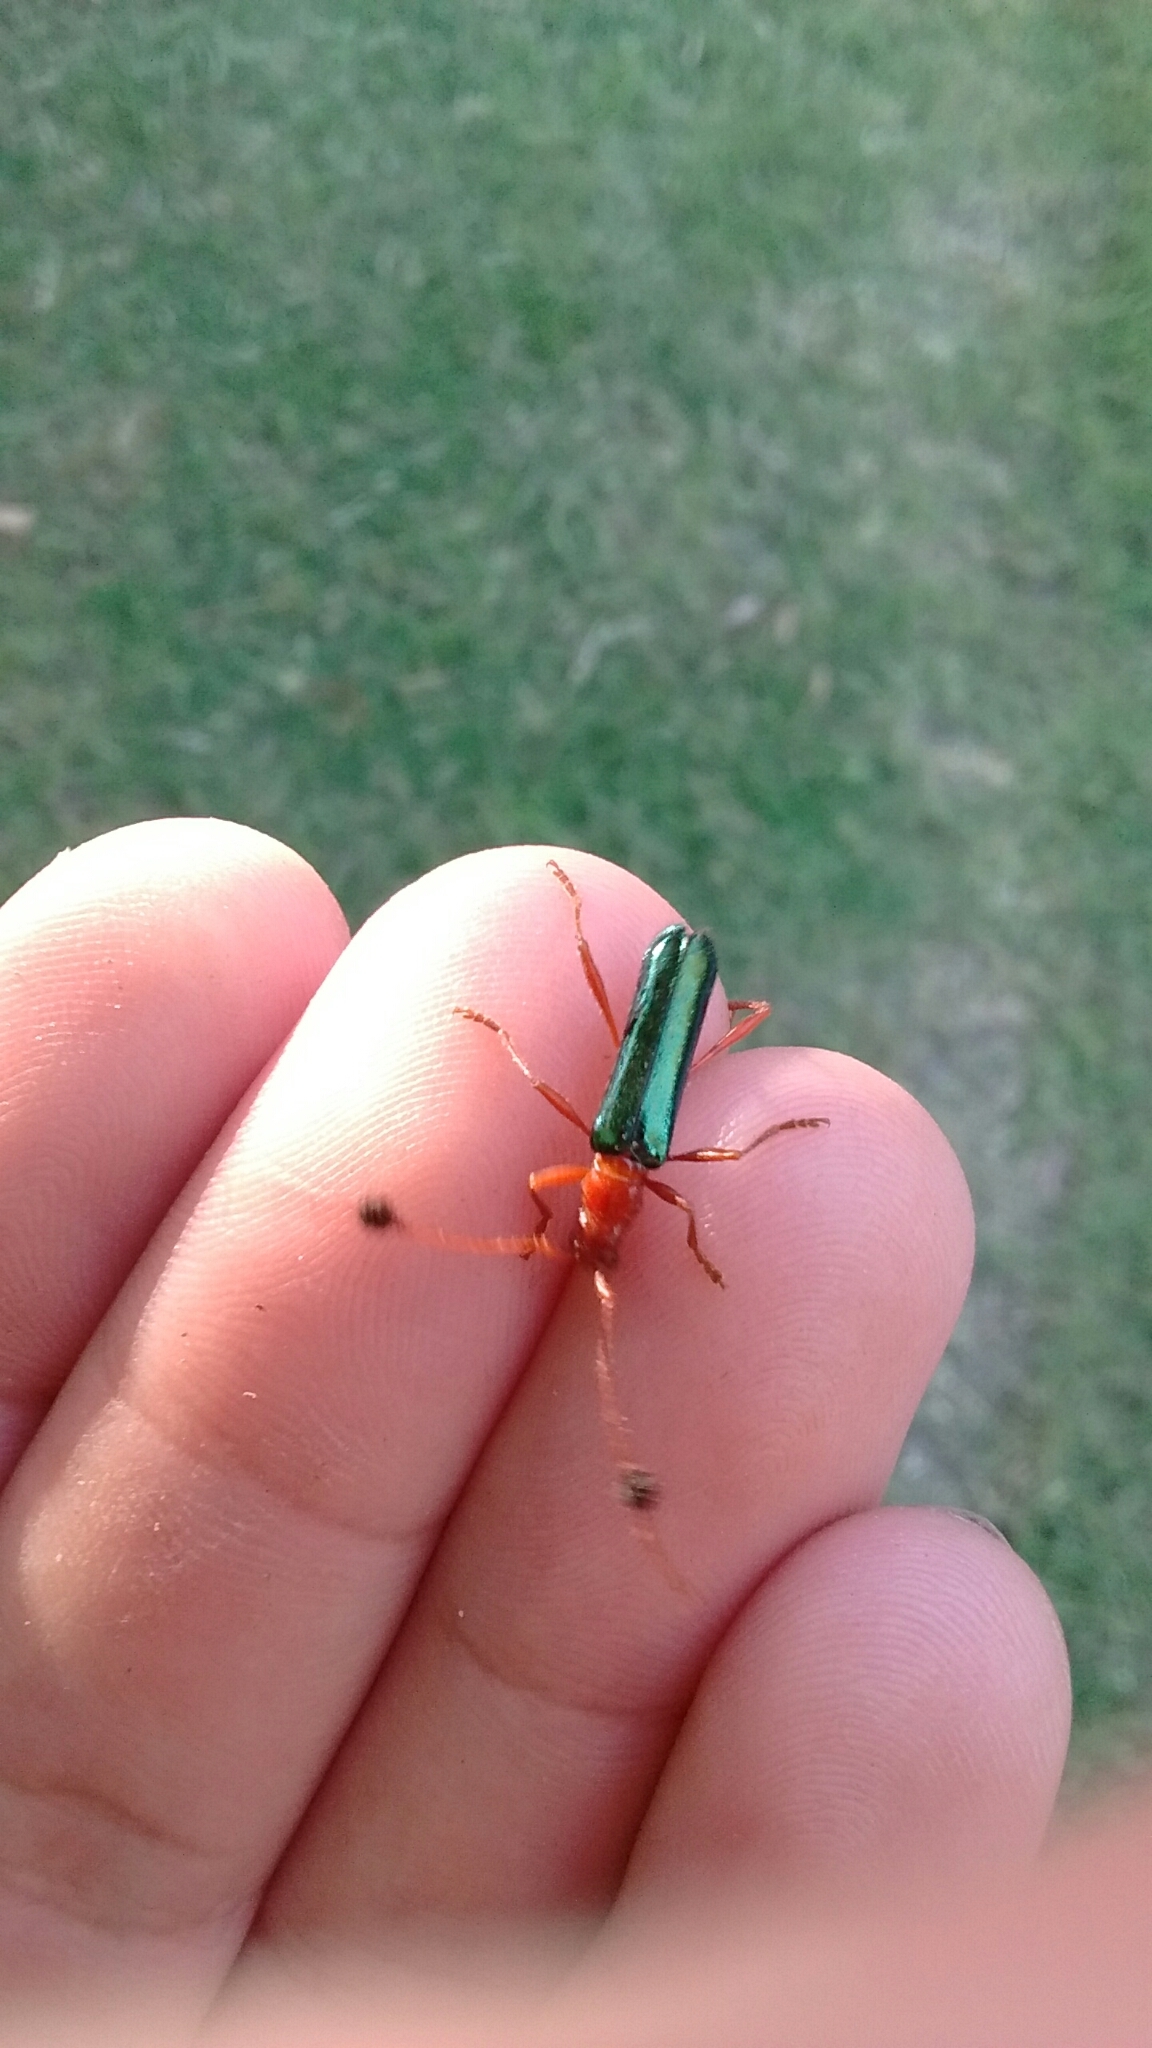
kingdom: Animalia
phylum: Arthropoda
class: Insecta
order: Coleoptera
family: Cerambycidae
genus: Paromoeocerus
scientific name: Paromoeocerus barbicornis
